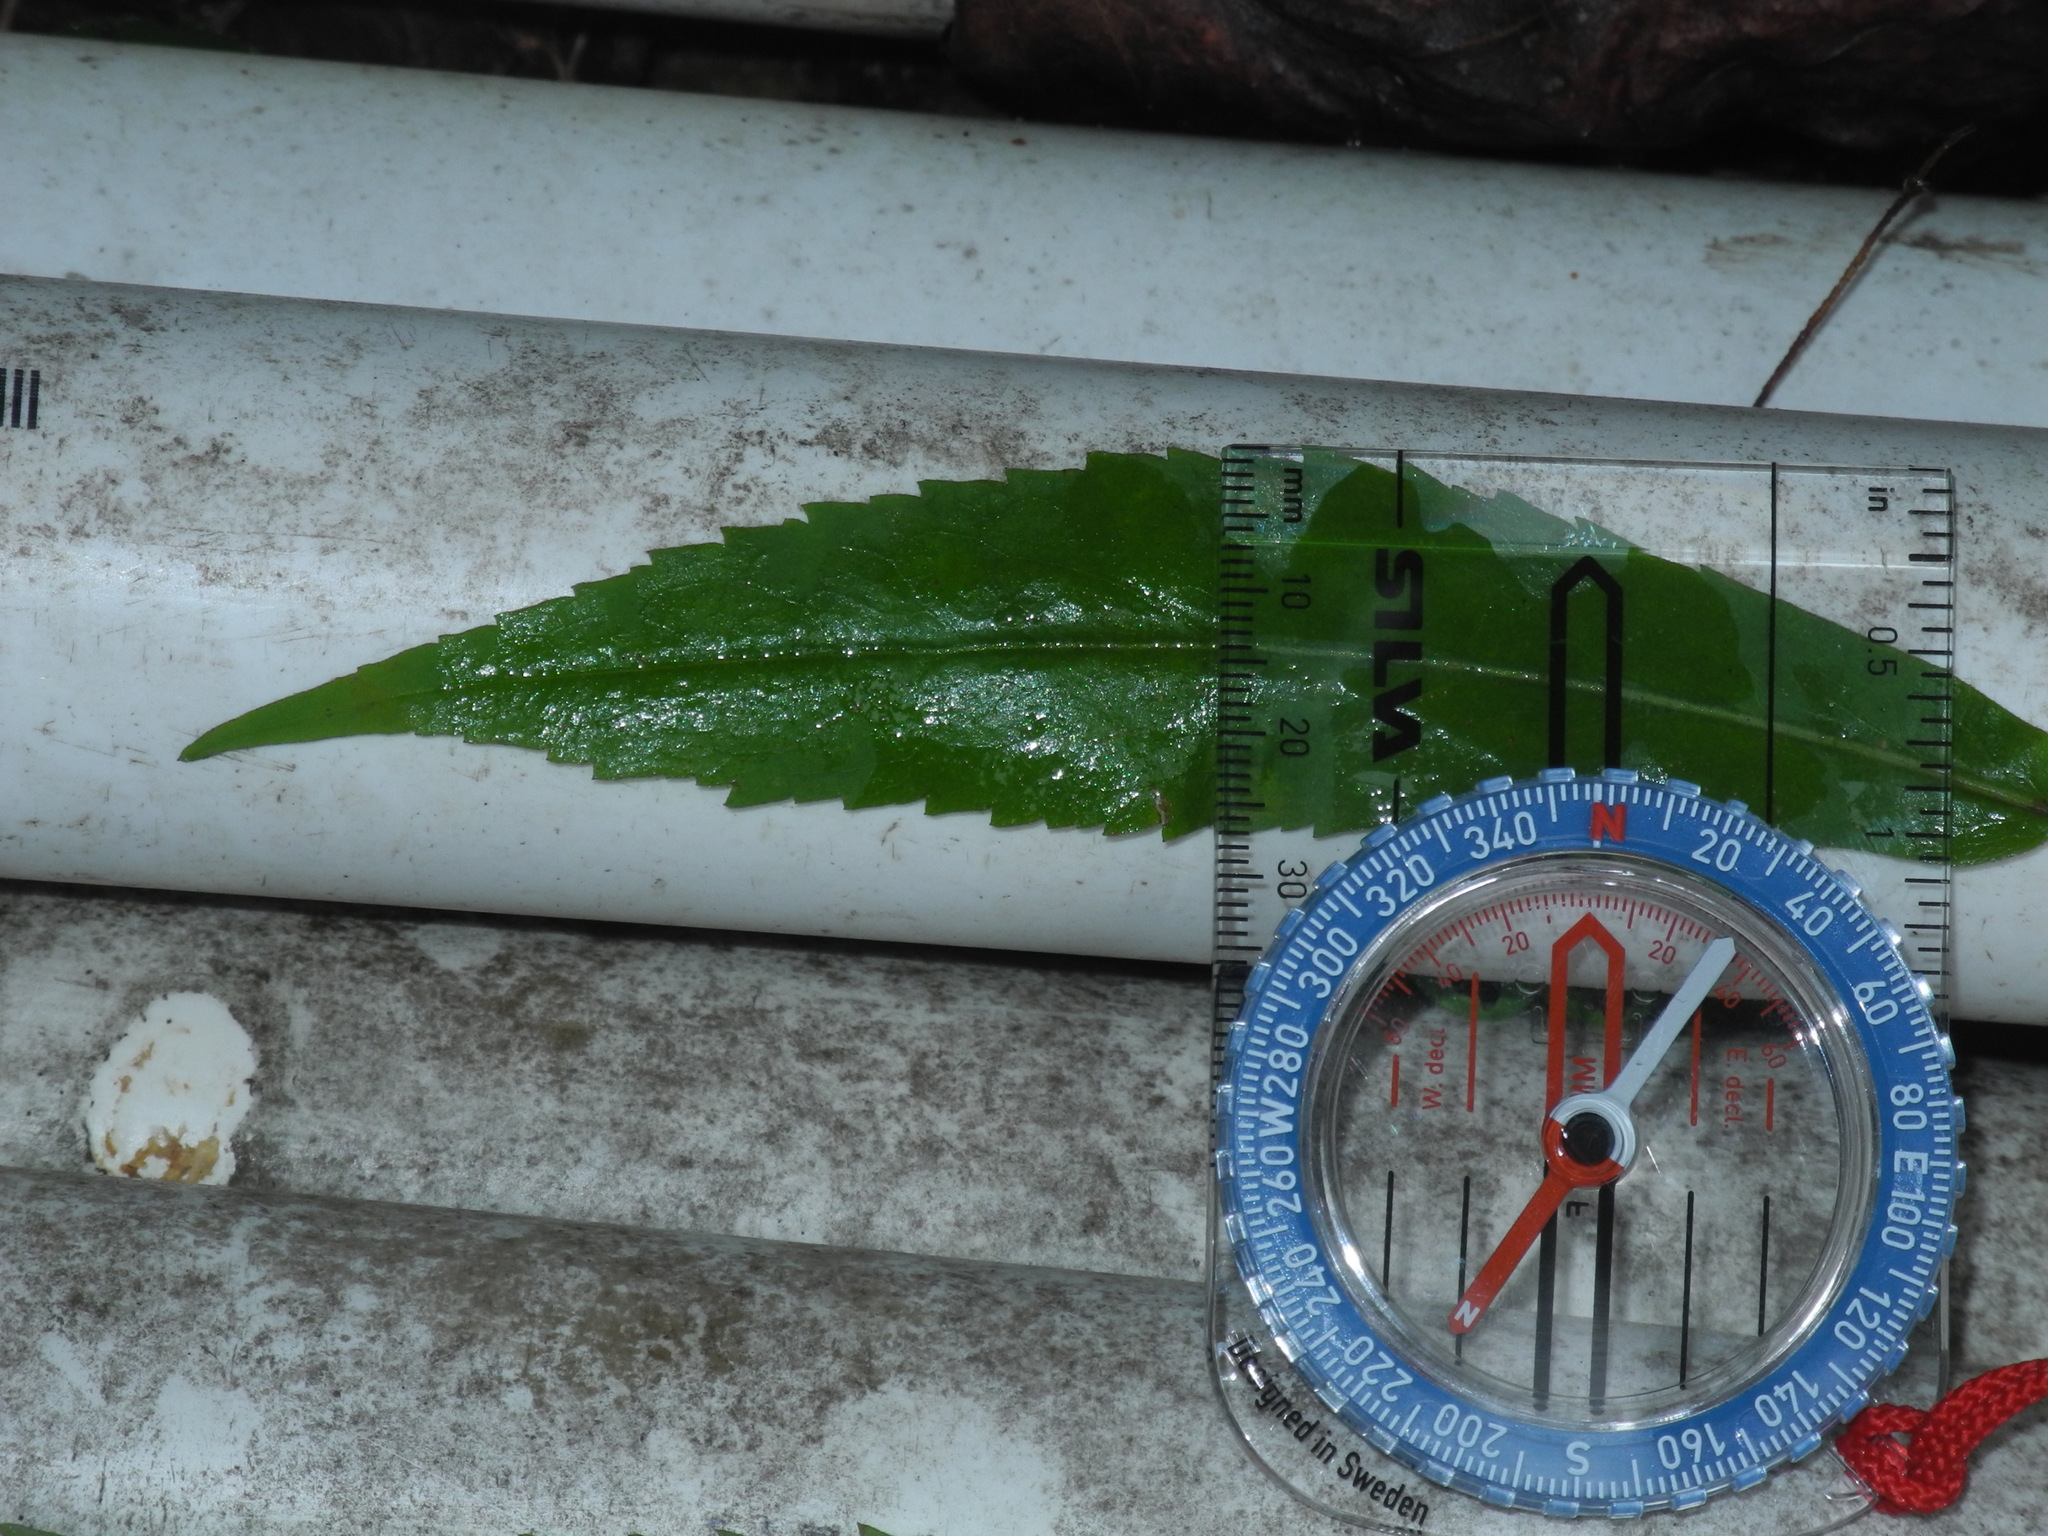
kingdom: Plantae
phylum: Tracheophyta
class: Magnoliopsida
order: Asterales
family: Asteraceae
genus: Solidago
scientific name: Solidago caesia
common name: Woodland goldenrod
